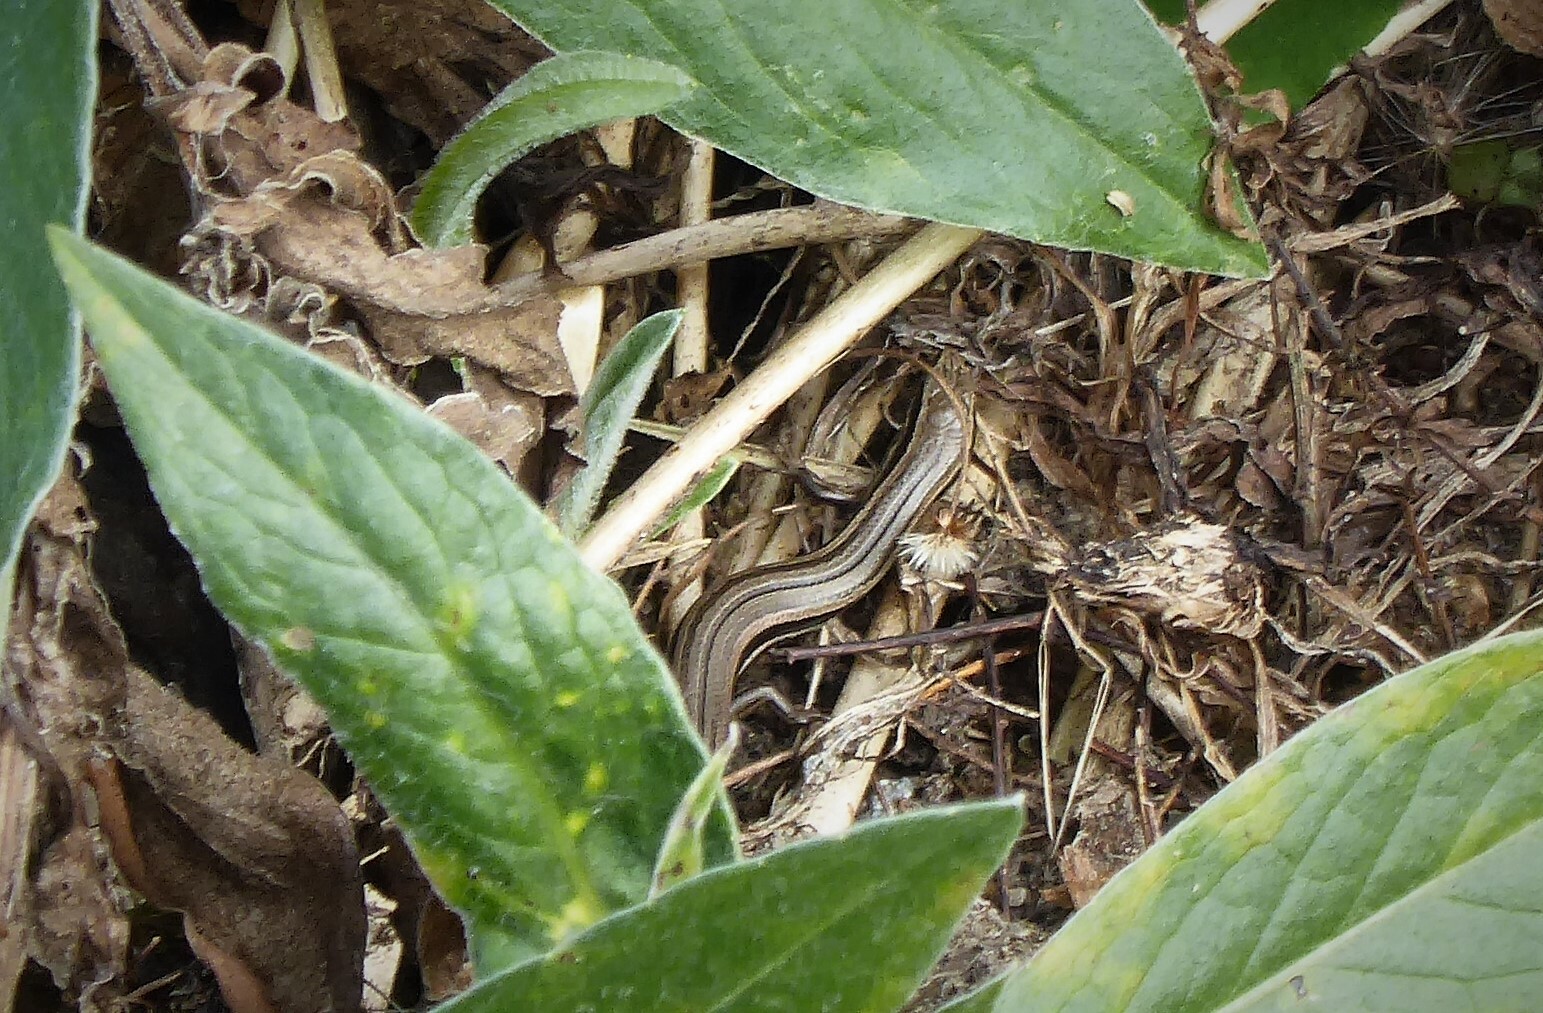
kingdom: Animalia
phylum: Chordata
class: Squamata
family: Scincidae
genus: Oligosoma
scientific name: Oligosoma polychroma
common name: Common new zealand skink
